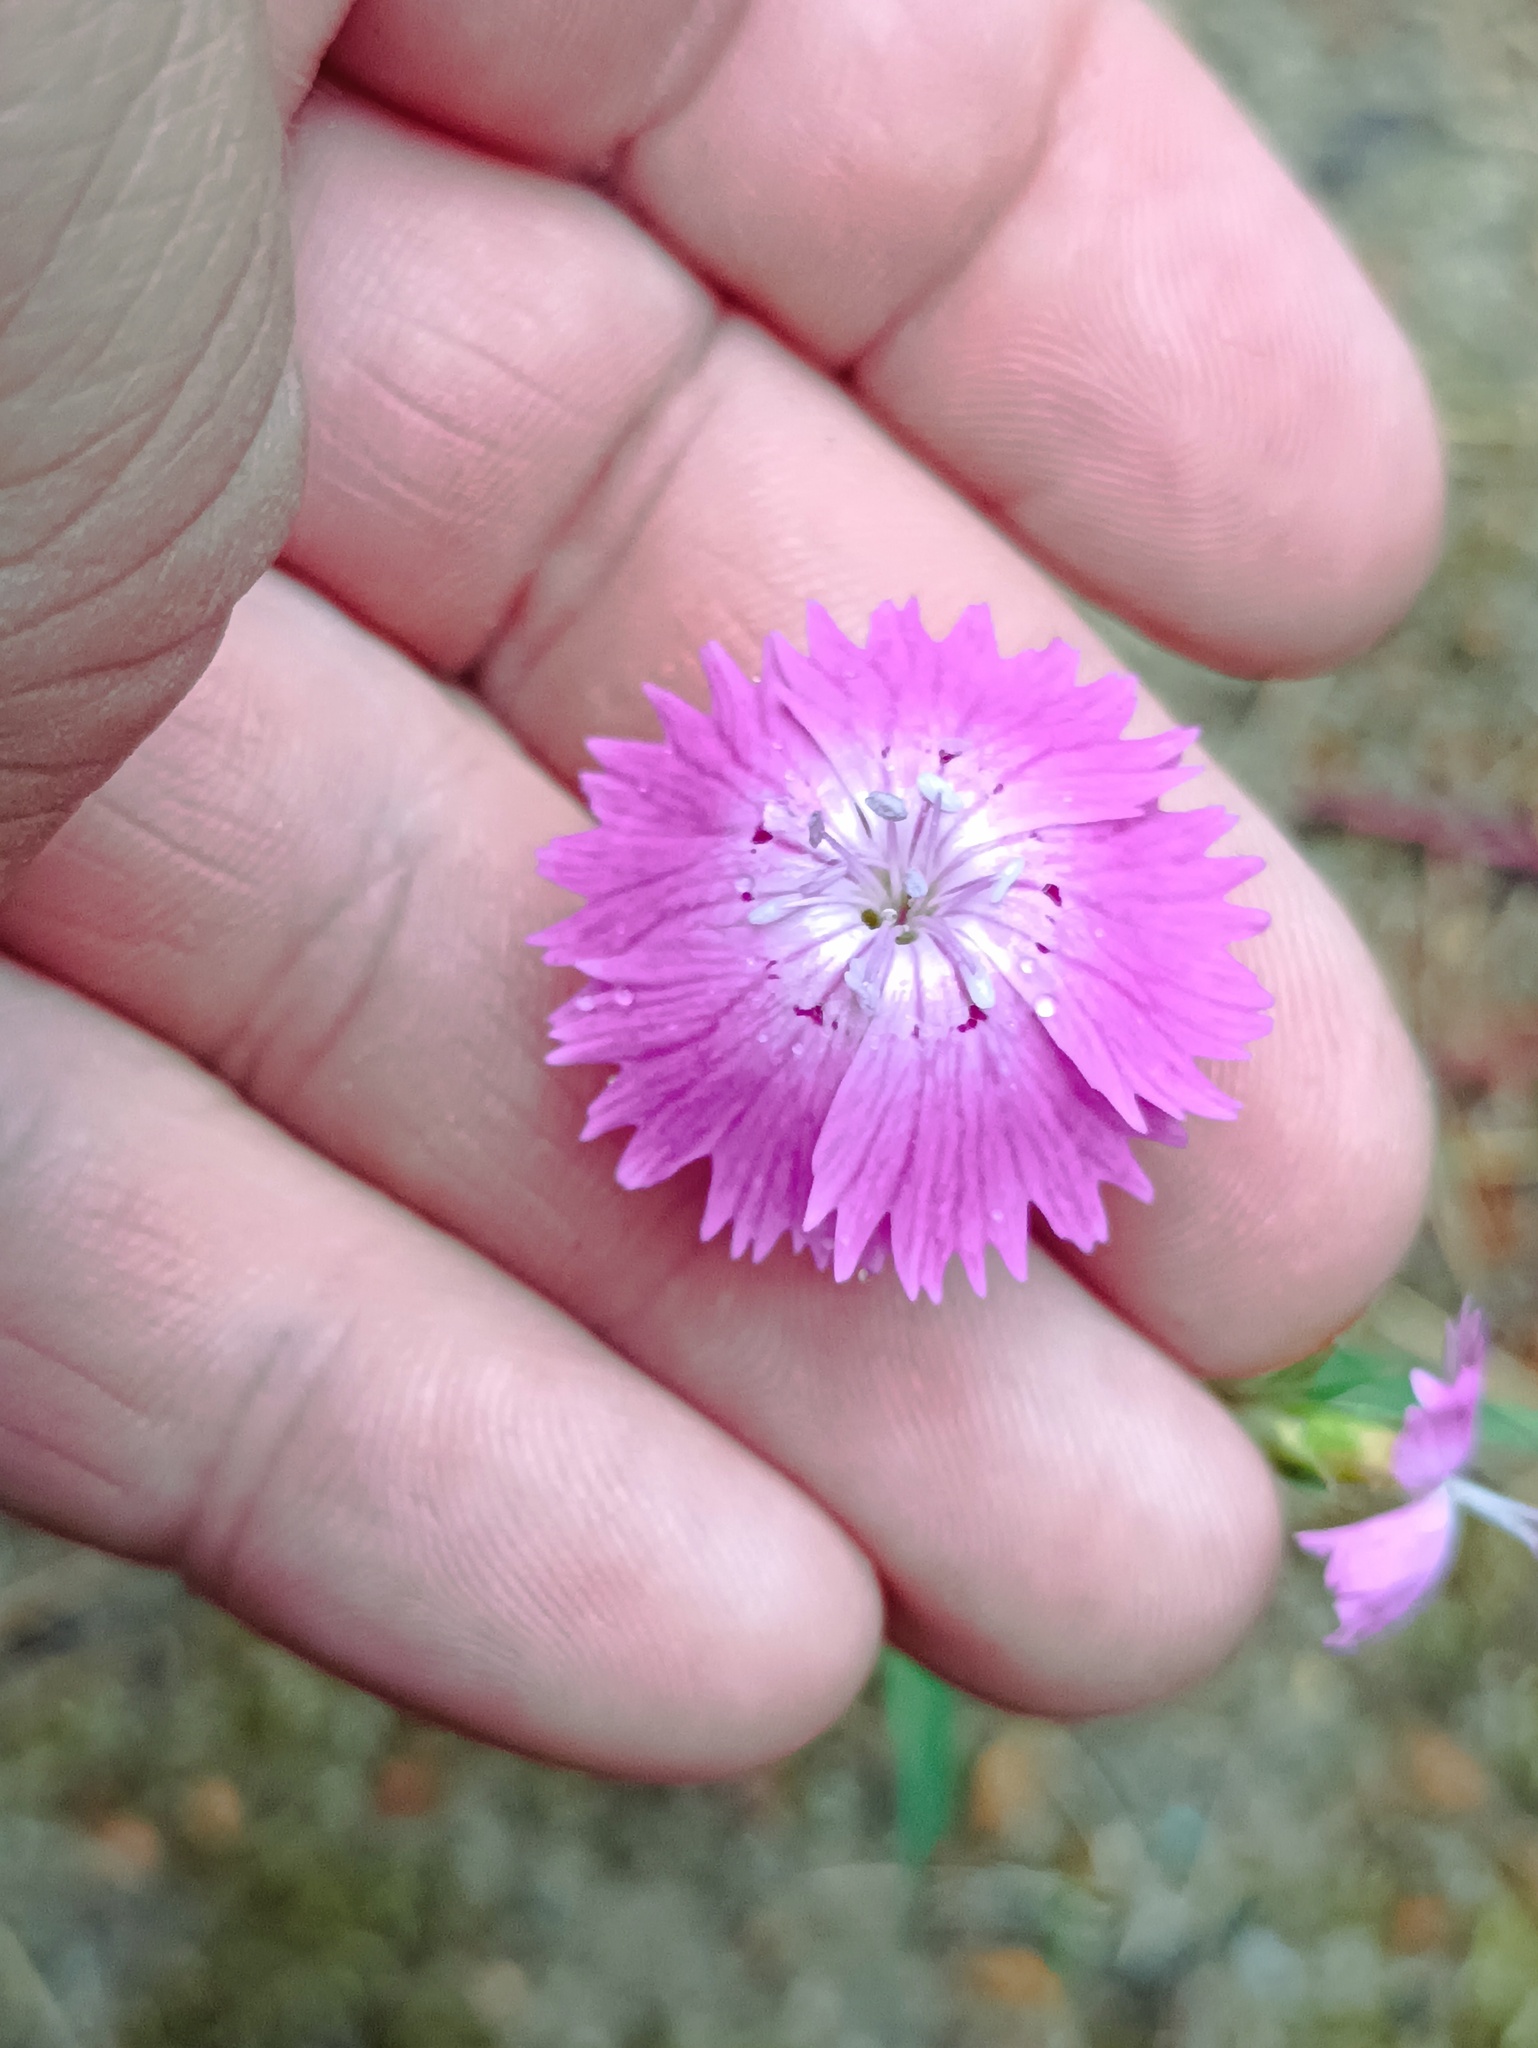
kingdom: Plantae
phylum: Tracheophyta
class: Magnoliopsida
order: Caryophyllales
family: Caryophyllaceae
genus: Dianthus
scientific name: Dianthus chinensis
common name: Rainbow pink
